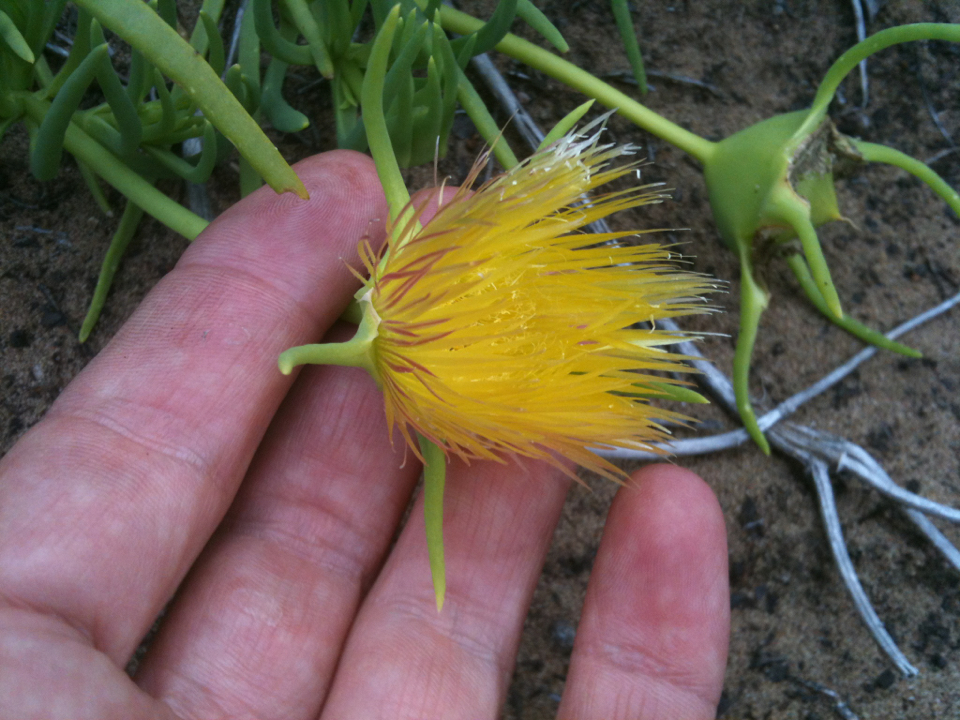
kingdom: Plantae
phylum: Tracheophyta
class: Magnoliopsida
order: Caryophyllales
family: Aizoaceae
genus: Conicosia
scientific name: Conicosia pugioniformis
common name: Narrow-leaved iceplant
